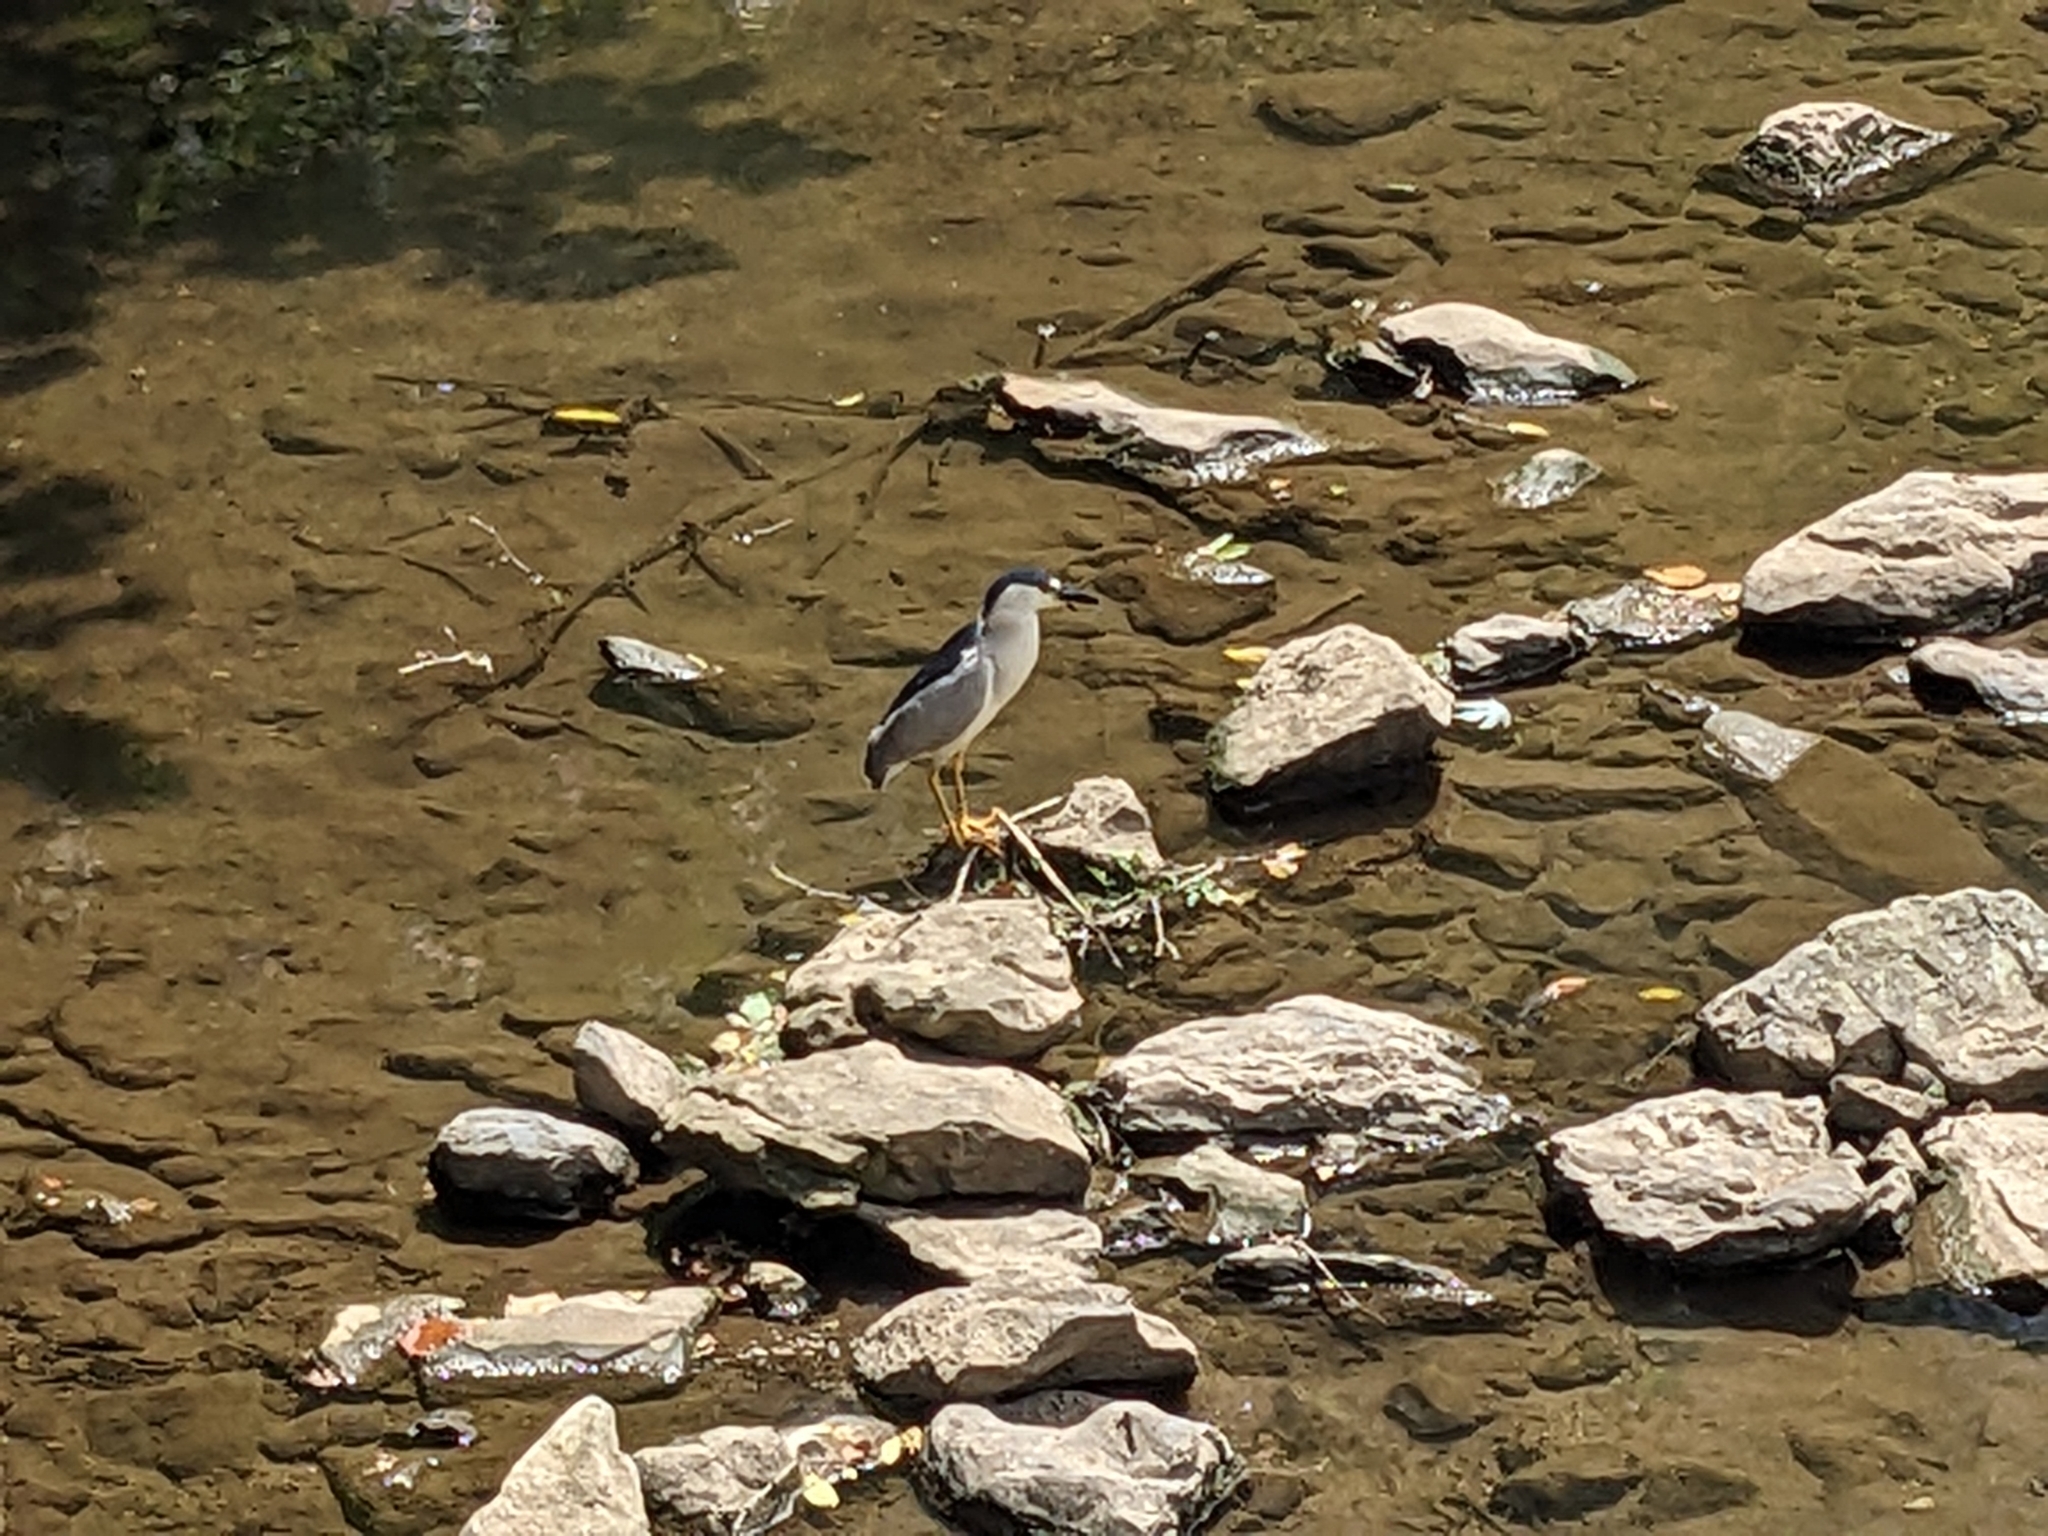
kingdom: Animalia
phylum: Chordata
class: Aves
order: Pelecaniformes
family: Ardeidae
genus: Nycticorax
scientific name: Nycticorax nycticorax
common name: Black-crowned night heron
